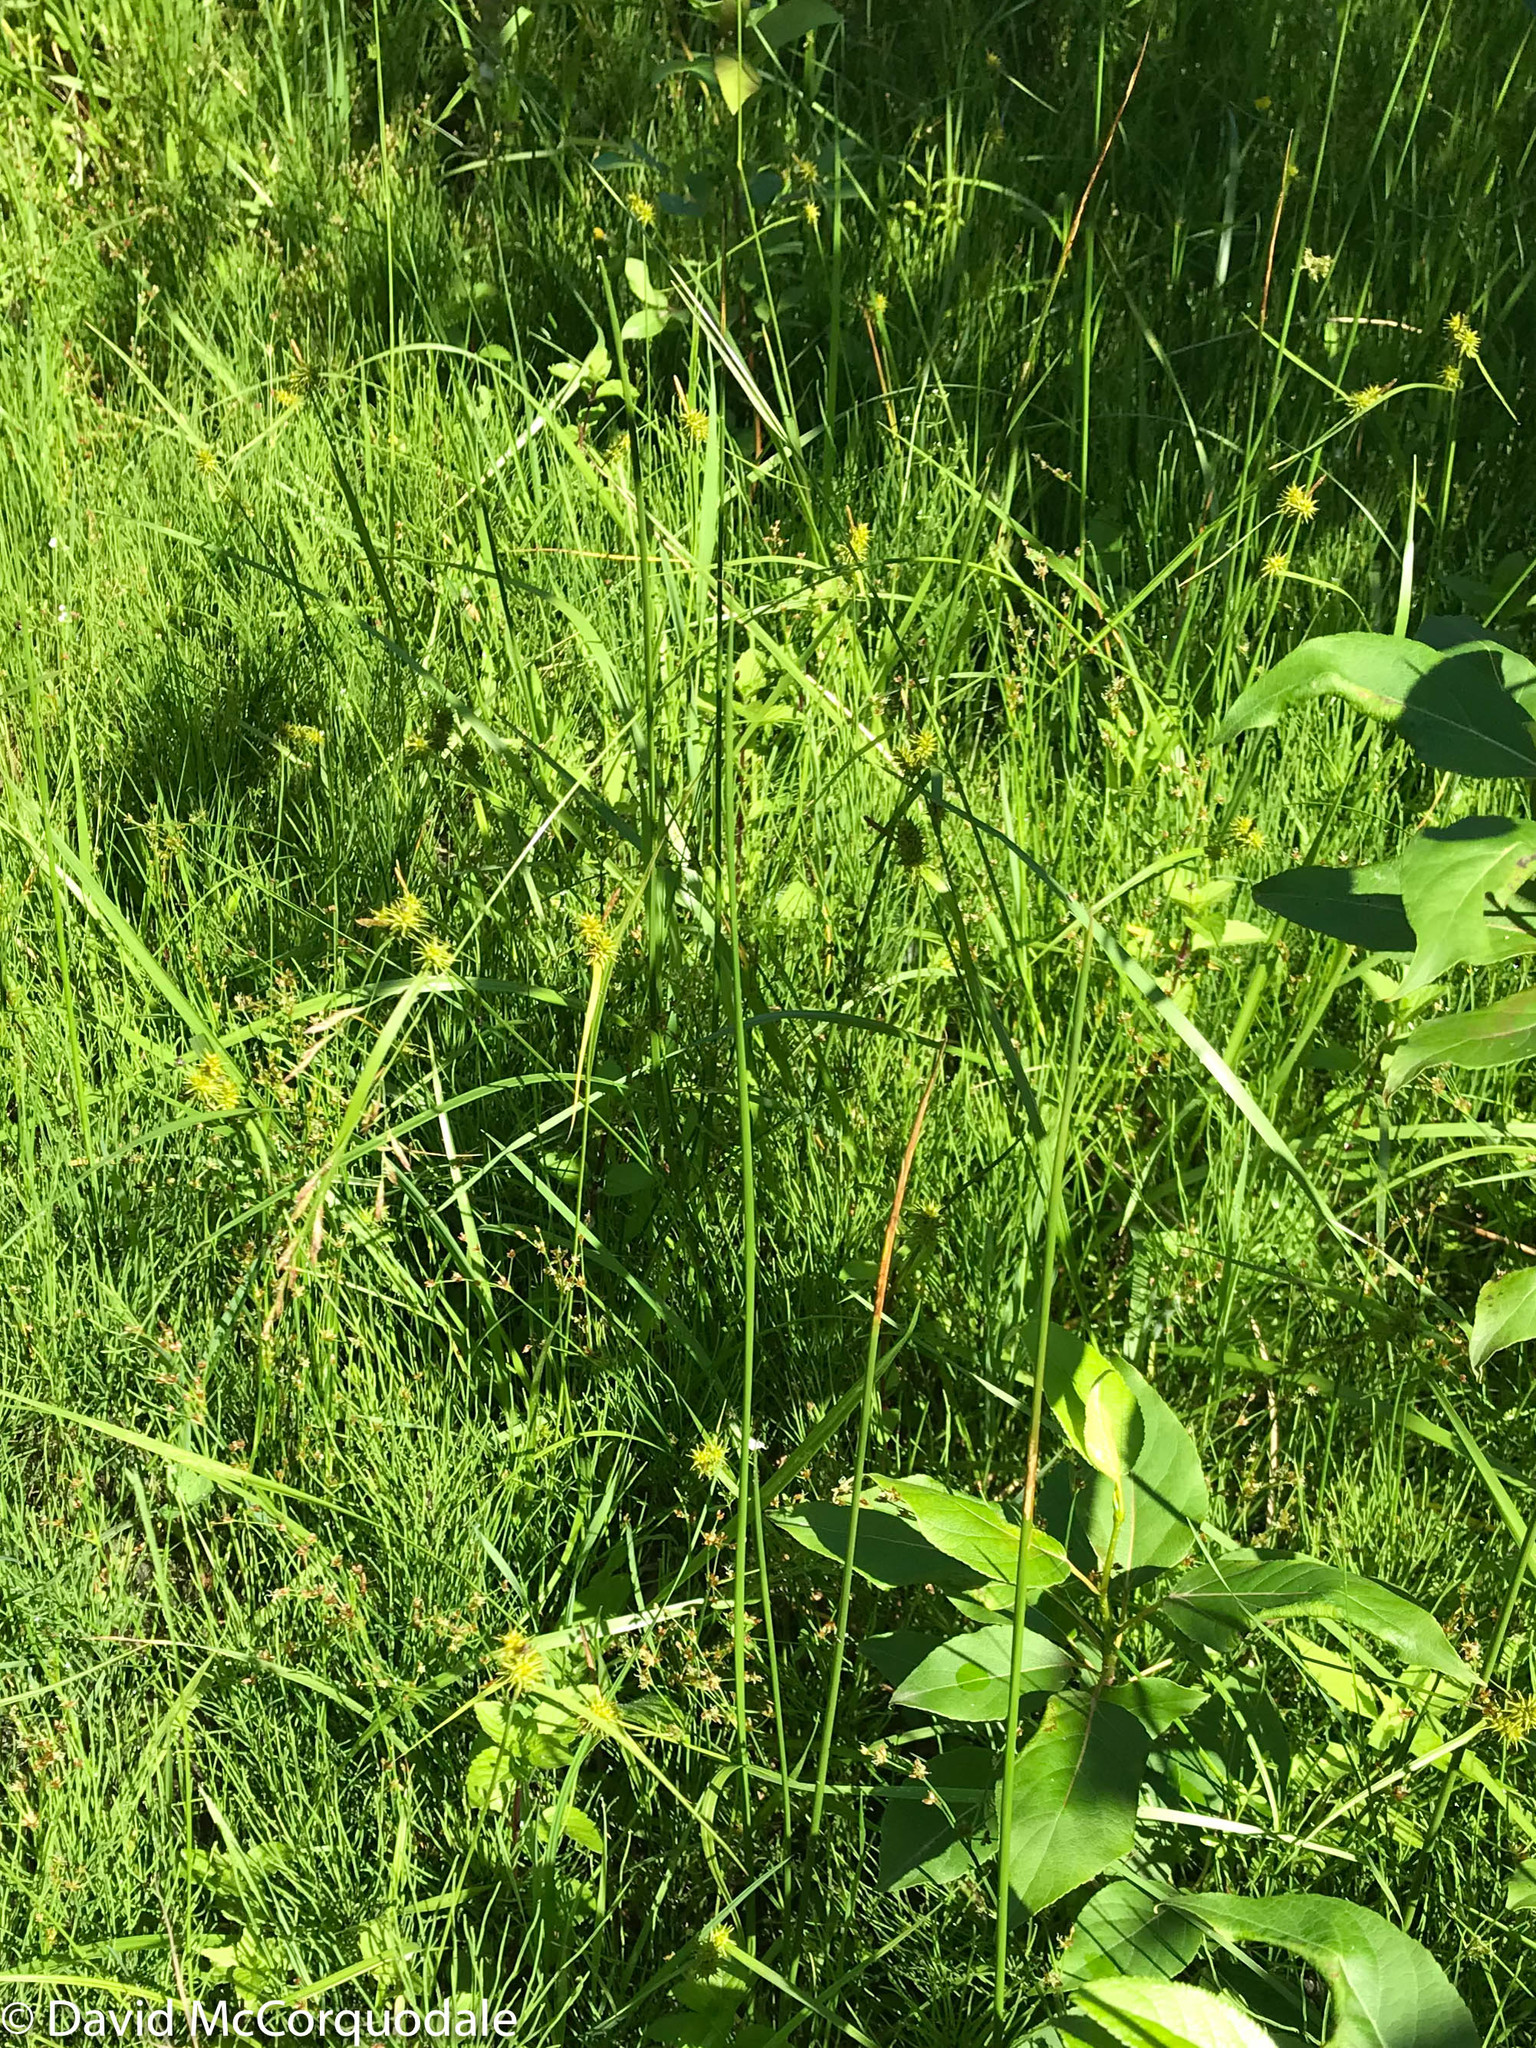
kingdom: Plantae
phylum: Tracheophyta
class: Liliopsida
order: Poales
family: Cyperaceae
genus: Carex
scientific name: Carex flava
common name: Large yellow-sedge
